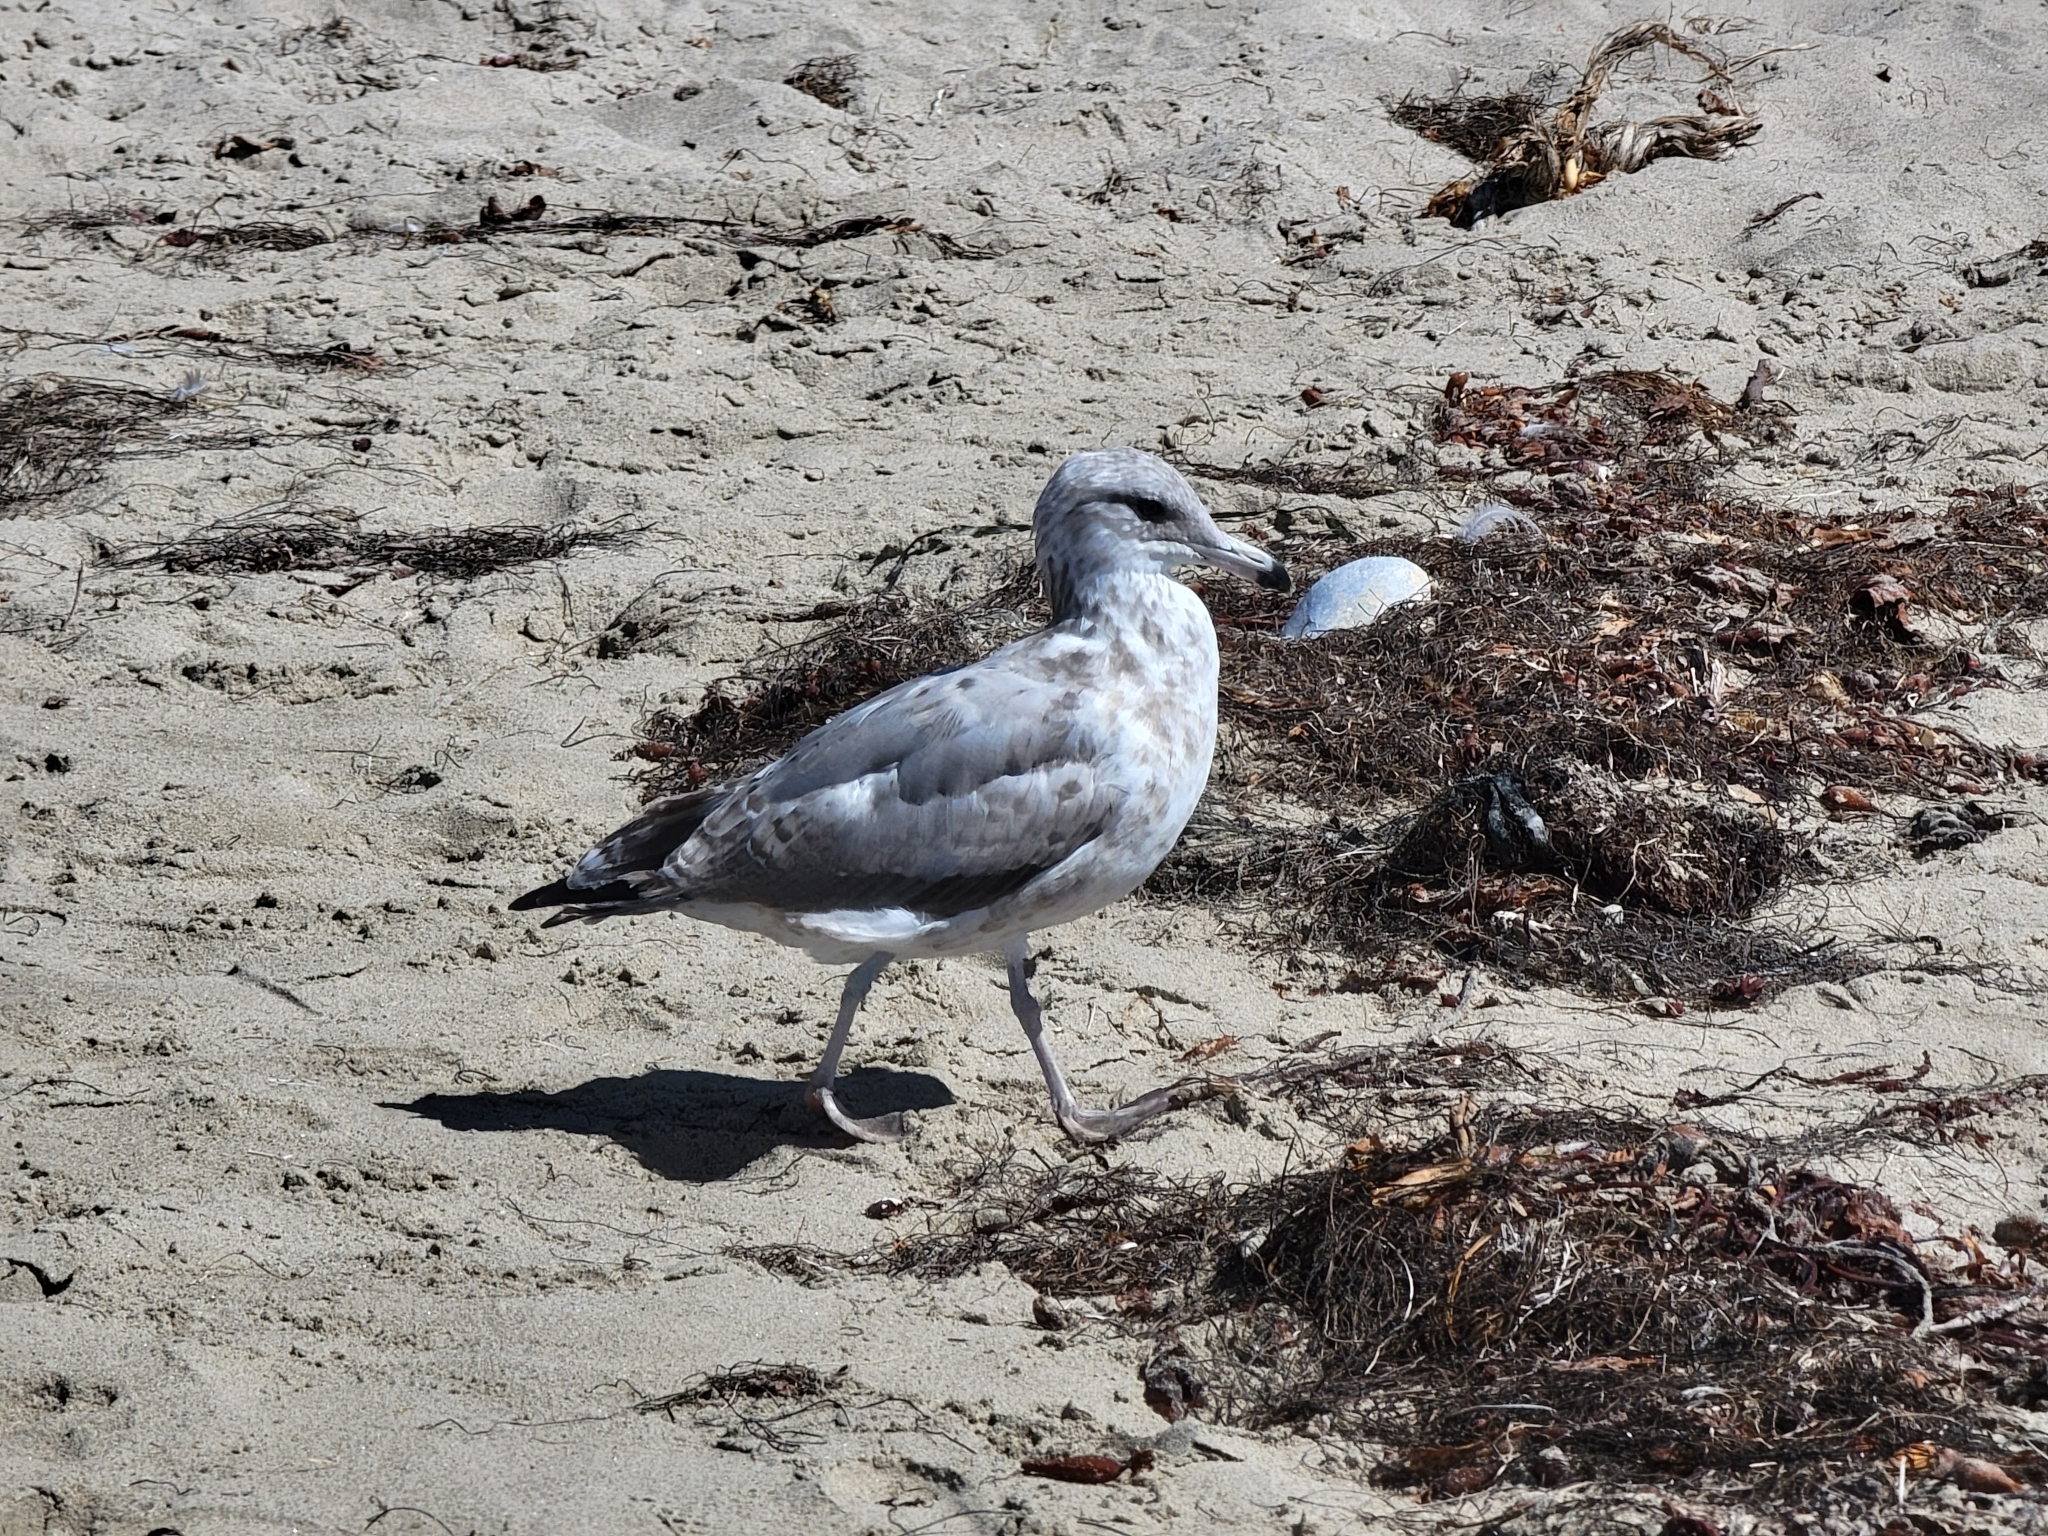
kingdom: Animalia
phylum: Chordata
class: Aves
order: Charadriiformes
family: Laridae
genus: Larus
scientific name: Larus californicus
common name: California gull
